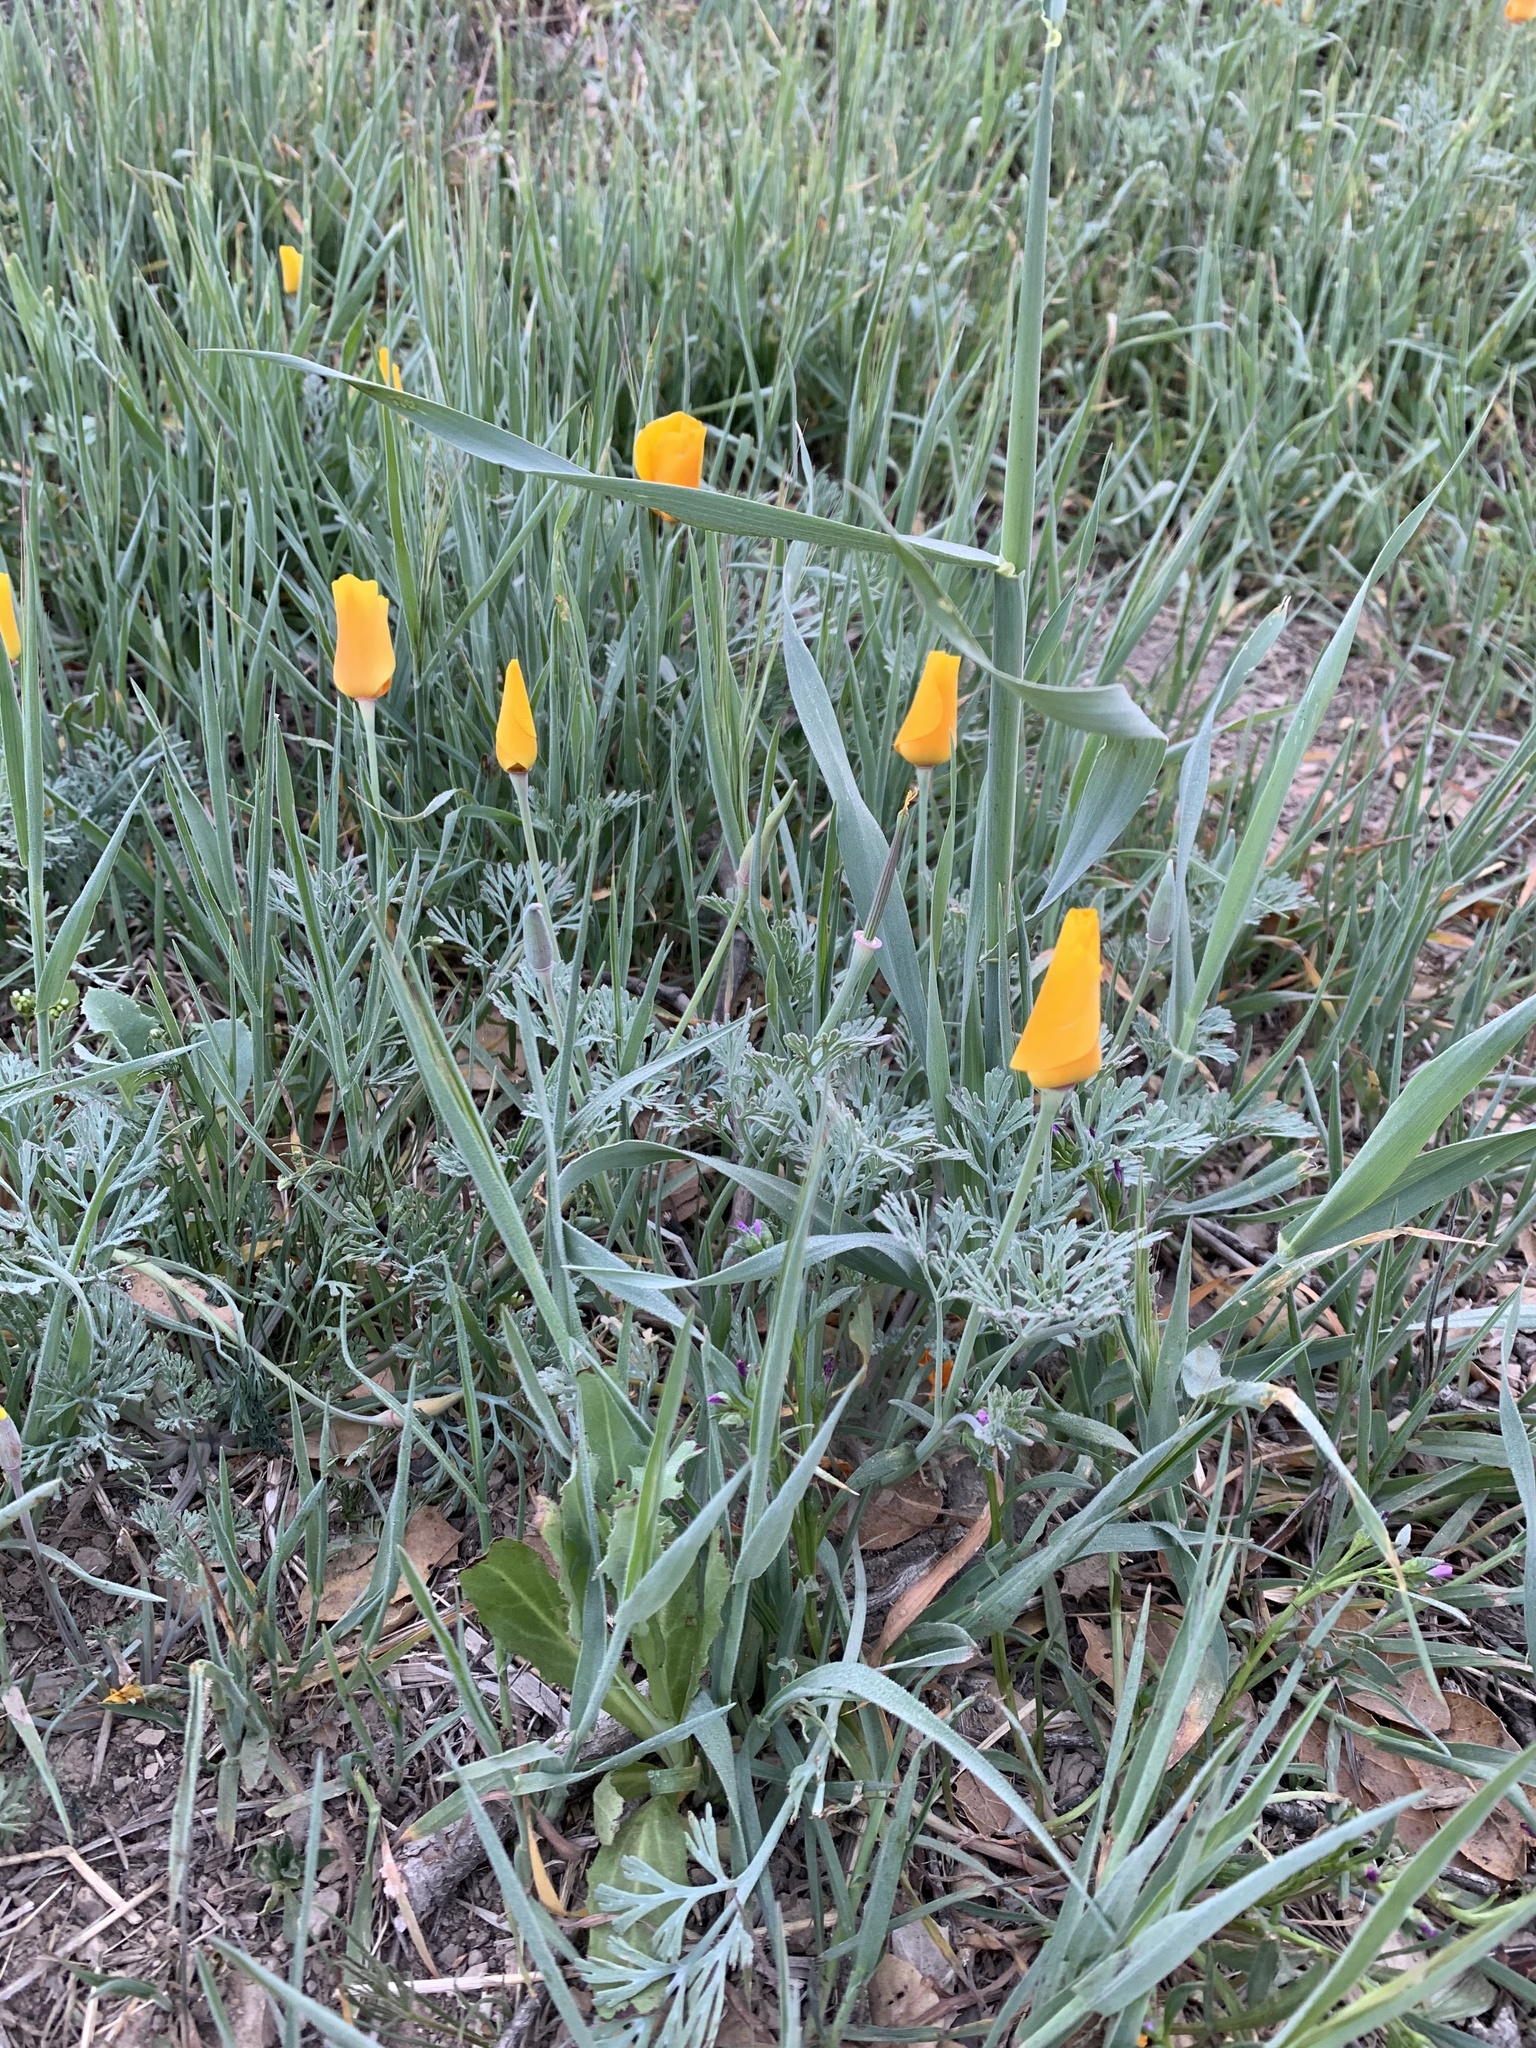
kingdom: Plantae
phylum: Tracheophyta
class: Magnoliopsida
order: Ranunculales
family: Papaveraceae
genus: Eschscholzia
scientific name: Eschscholzia californica
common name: California poppy
